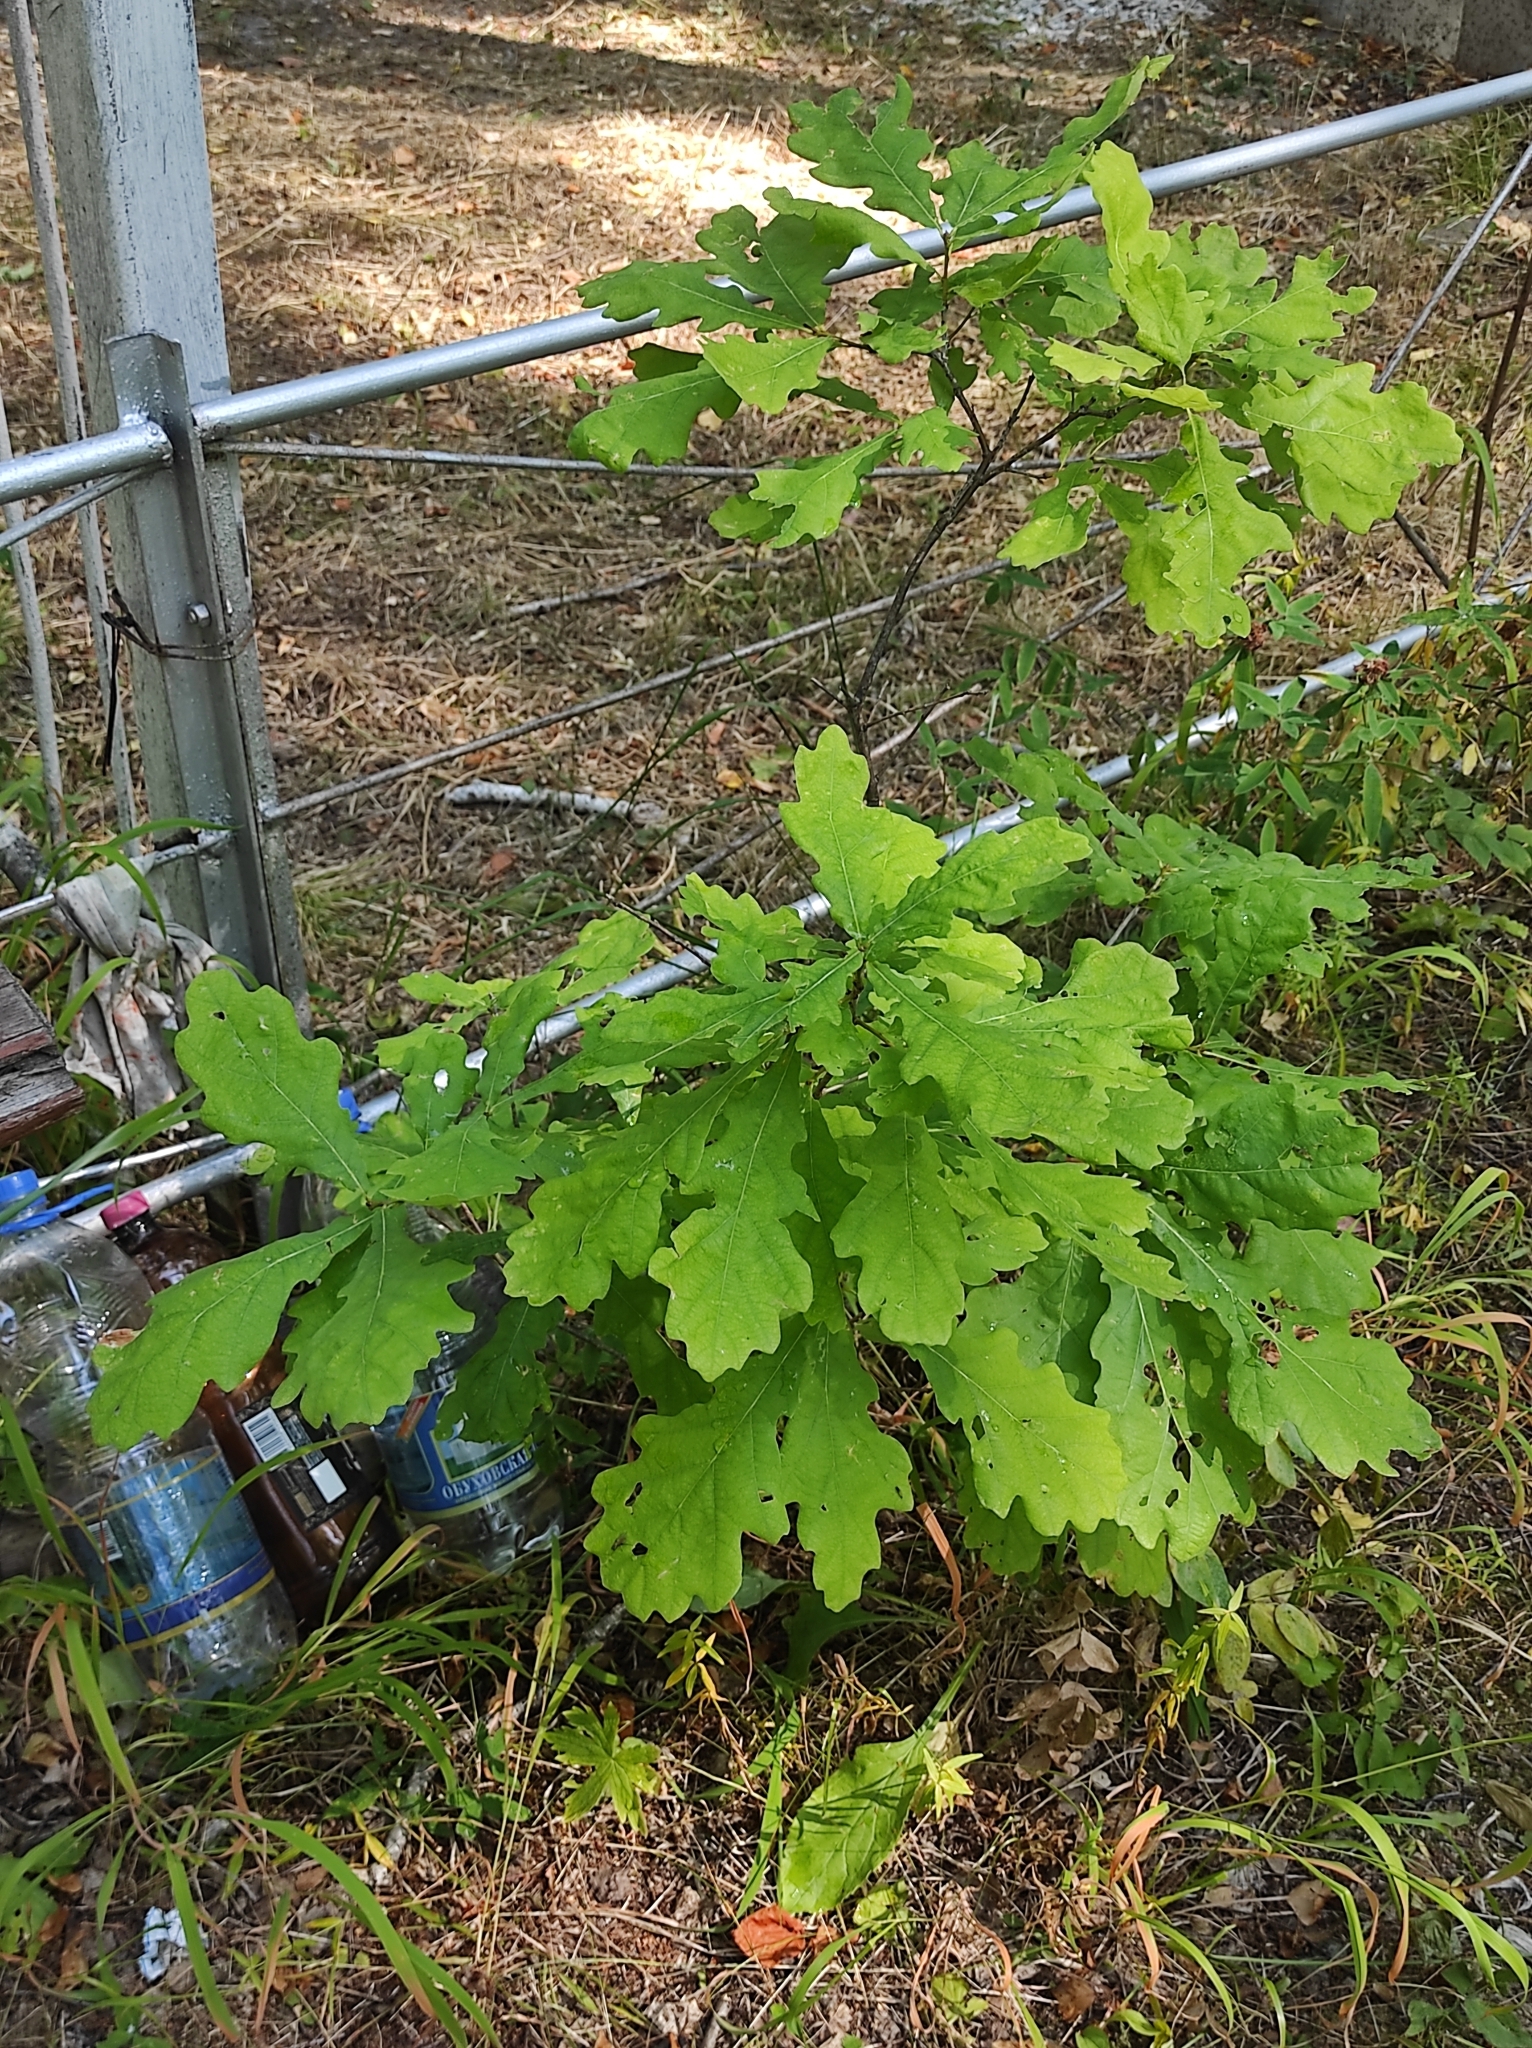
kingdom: Plantae
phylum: Tracheophyta
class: Magnoliopsida
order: Fagales
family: Fagaceae
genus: Quercus
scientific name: Quercus robur
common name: Pedunculate oak
